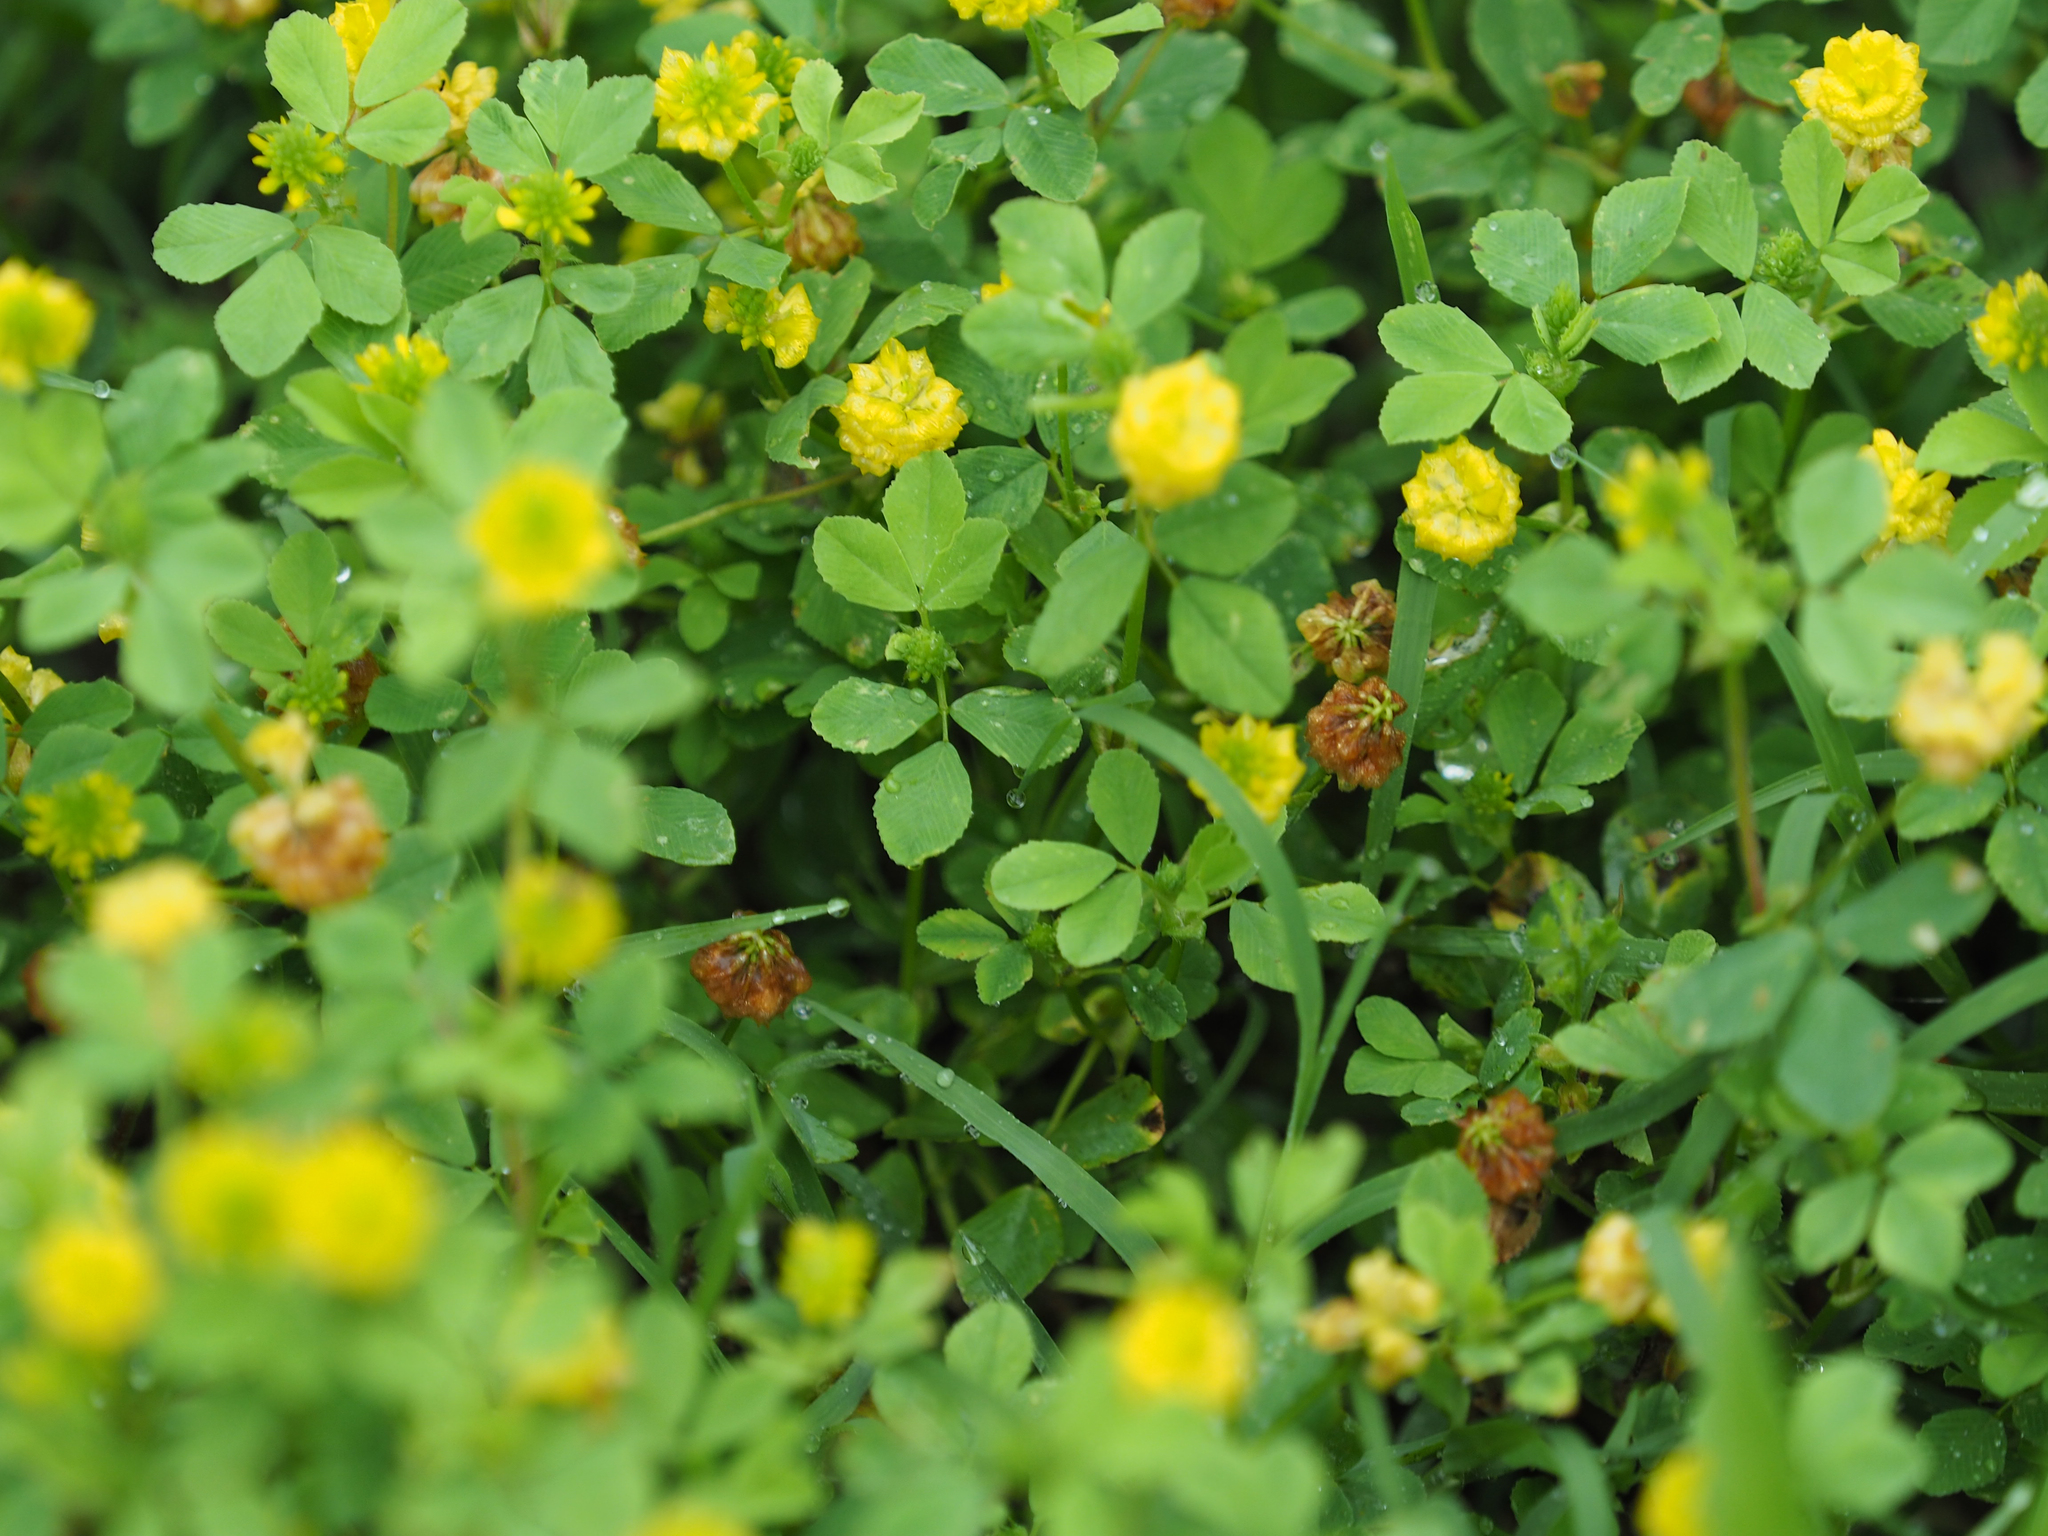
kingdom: Plantae
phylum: Tracheophyta
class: Magnoliopsida
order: Fabales
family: Fabaceae
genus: Trifolium
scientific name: Trifolium campestre
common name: Field clover
